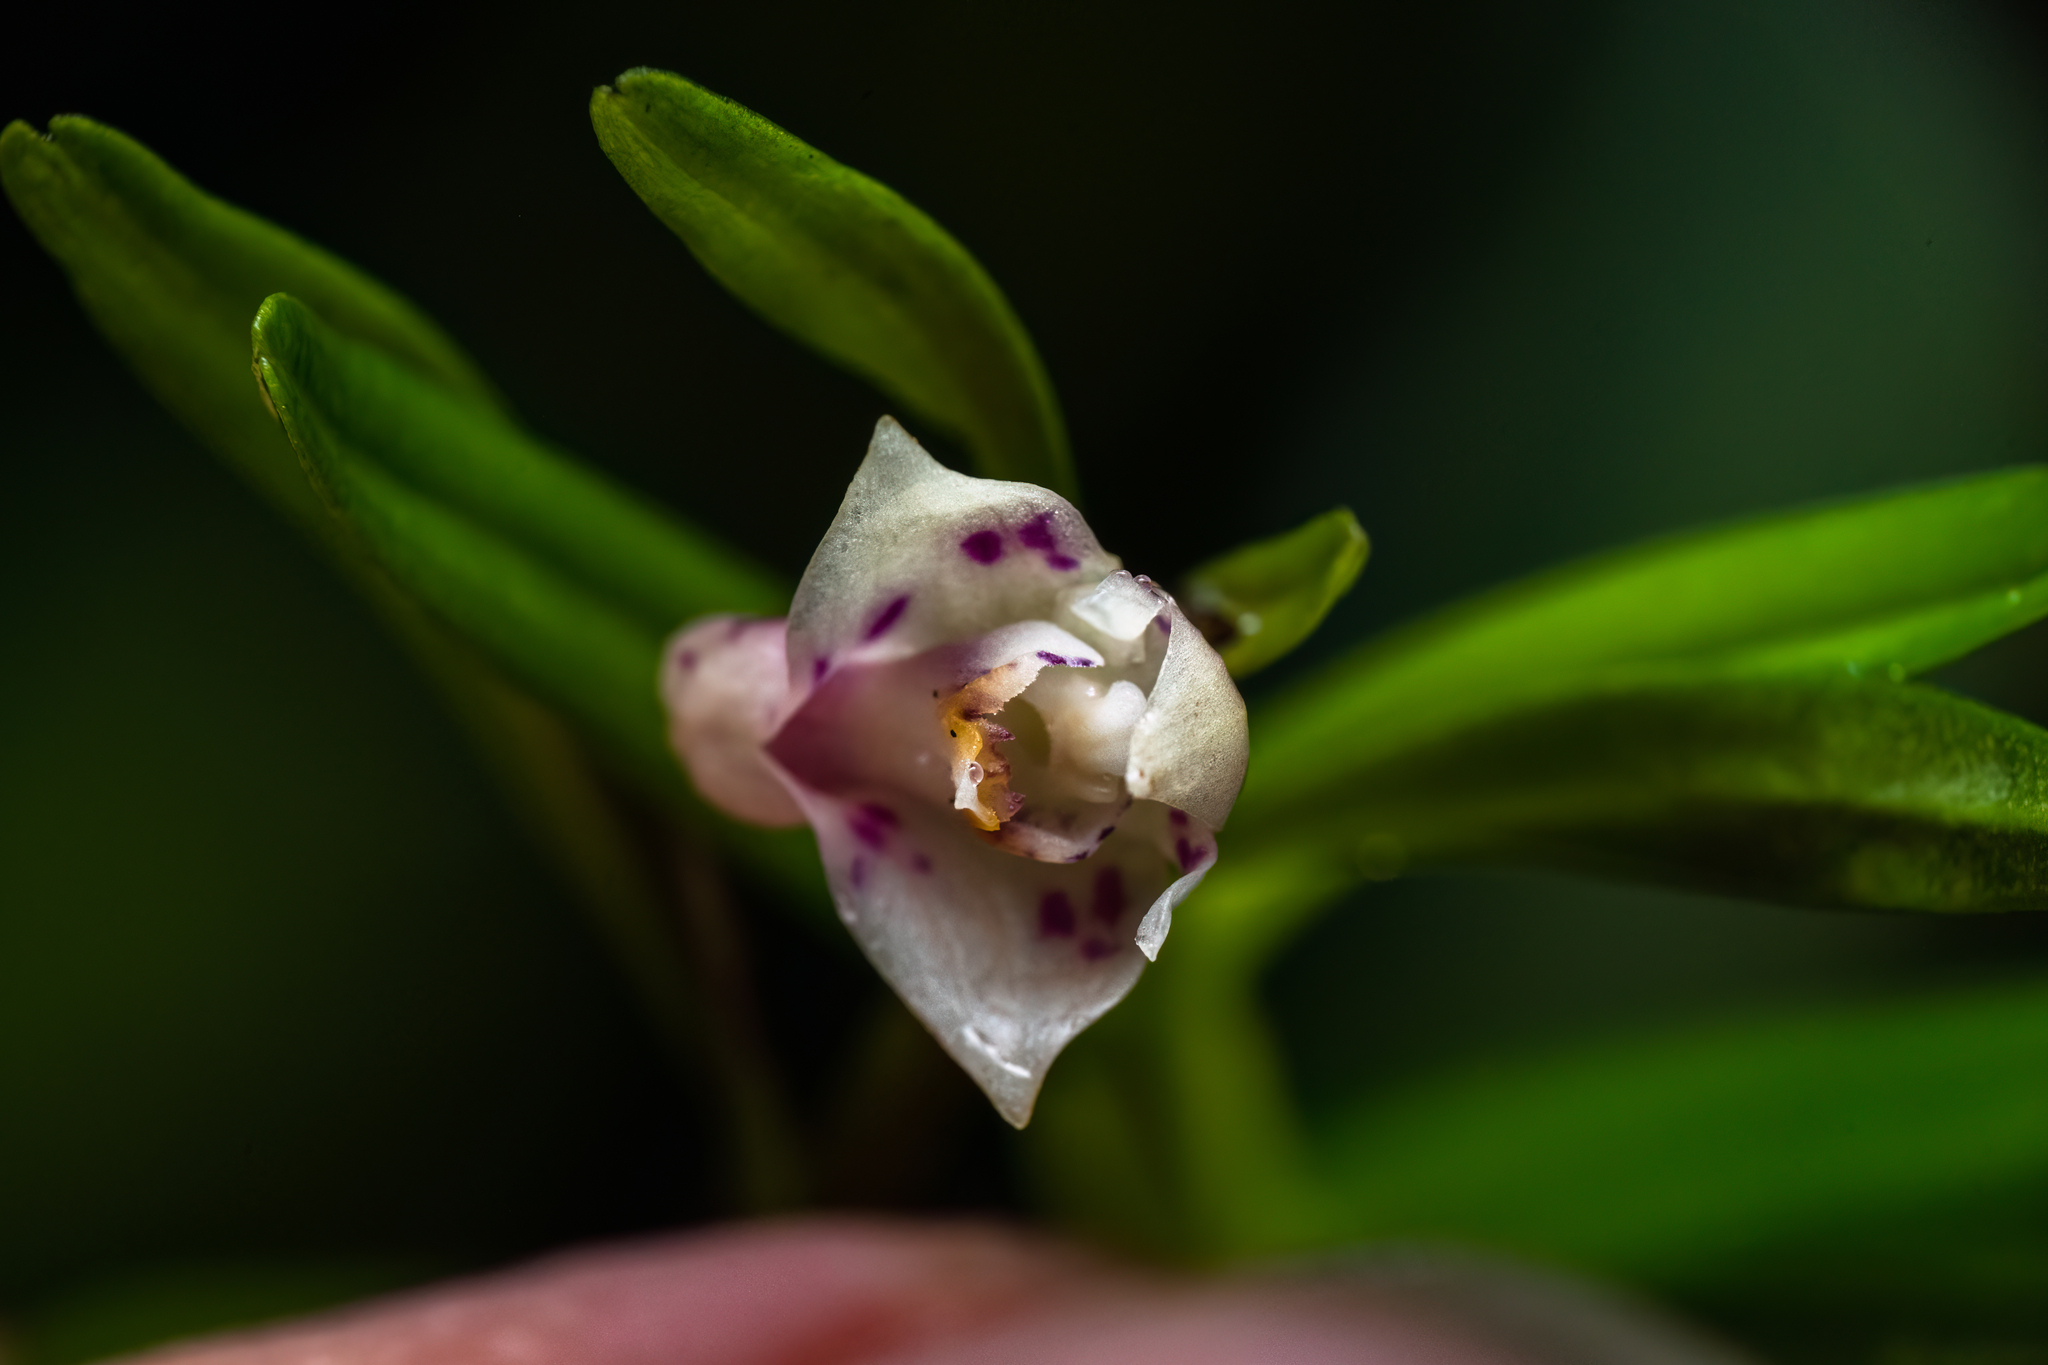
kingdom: Plantae
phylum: Tracheophyta
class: Liliopsida
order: Asparagales
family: Orchidaceae
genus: Dendrobium
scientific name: Dendrobium alabense
